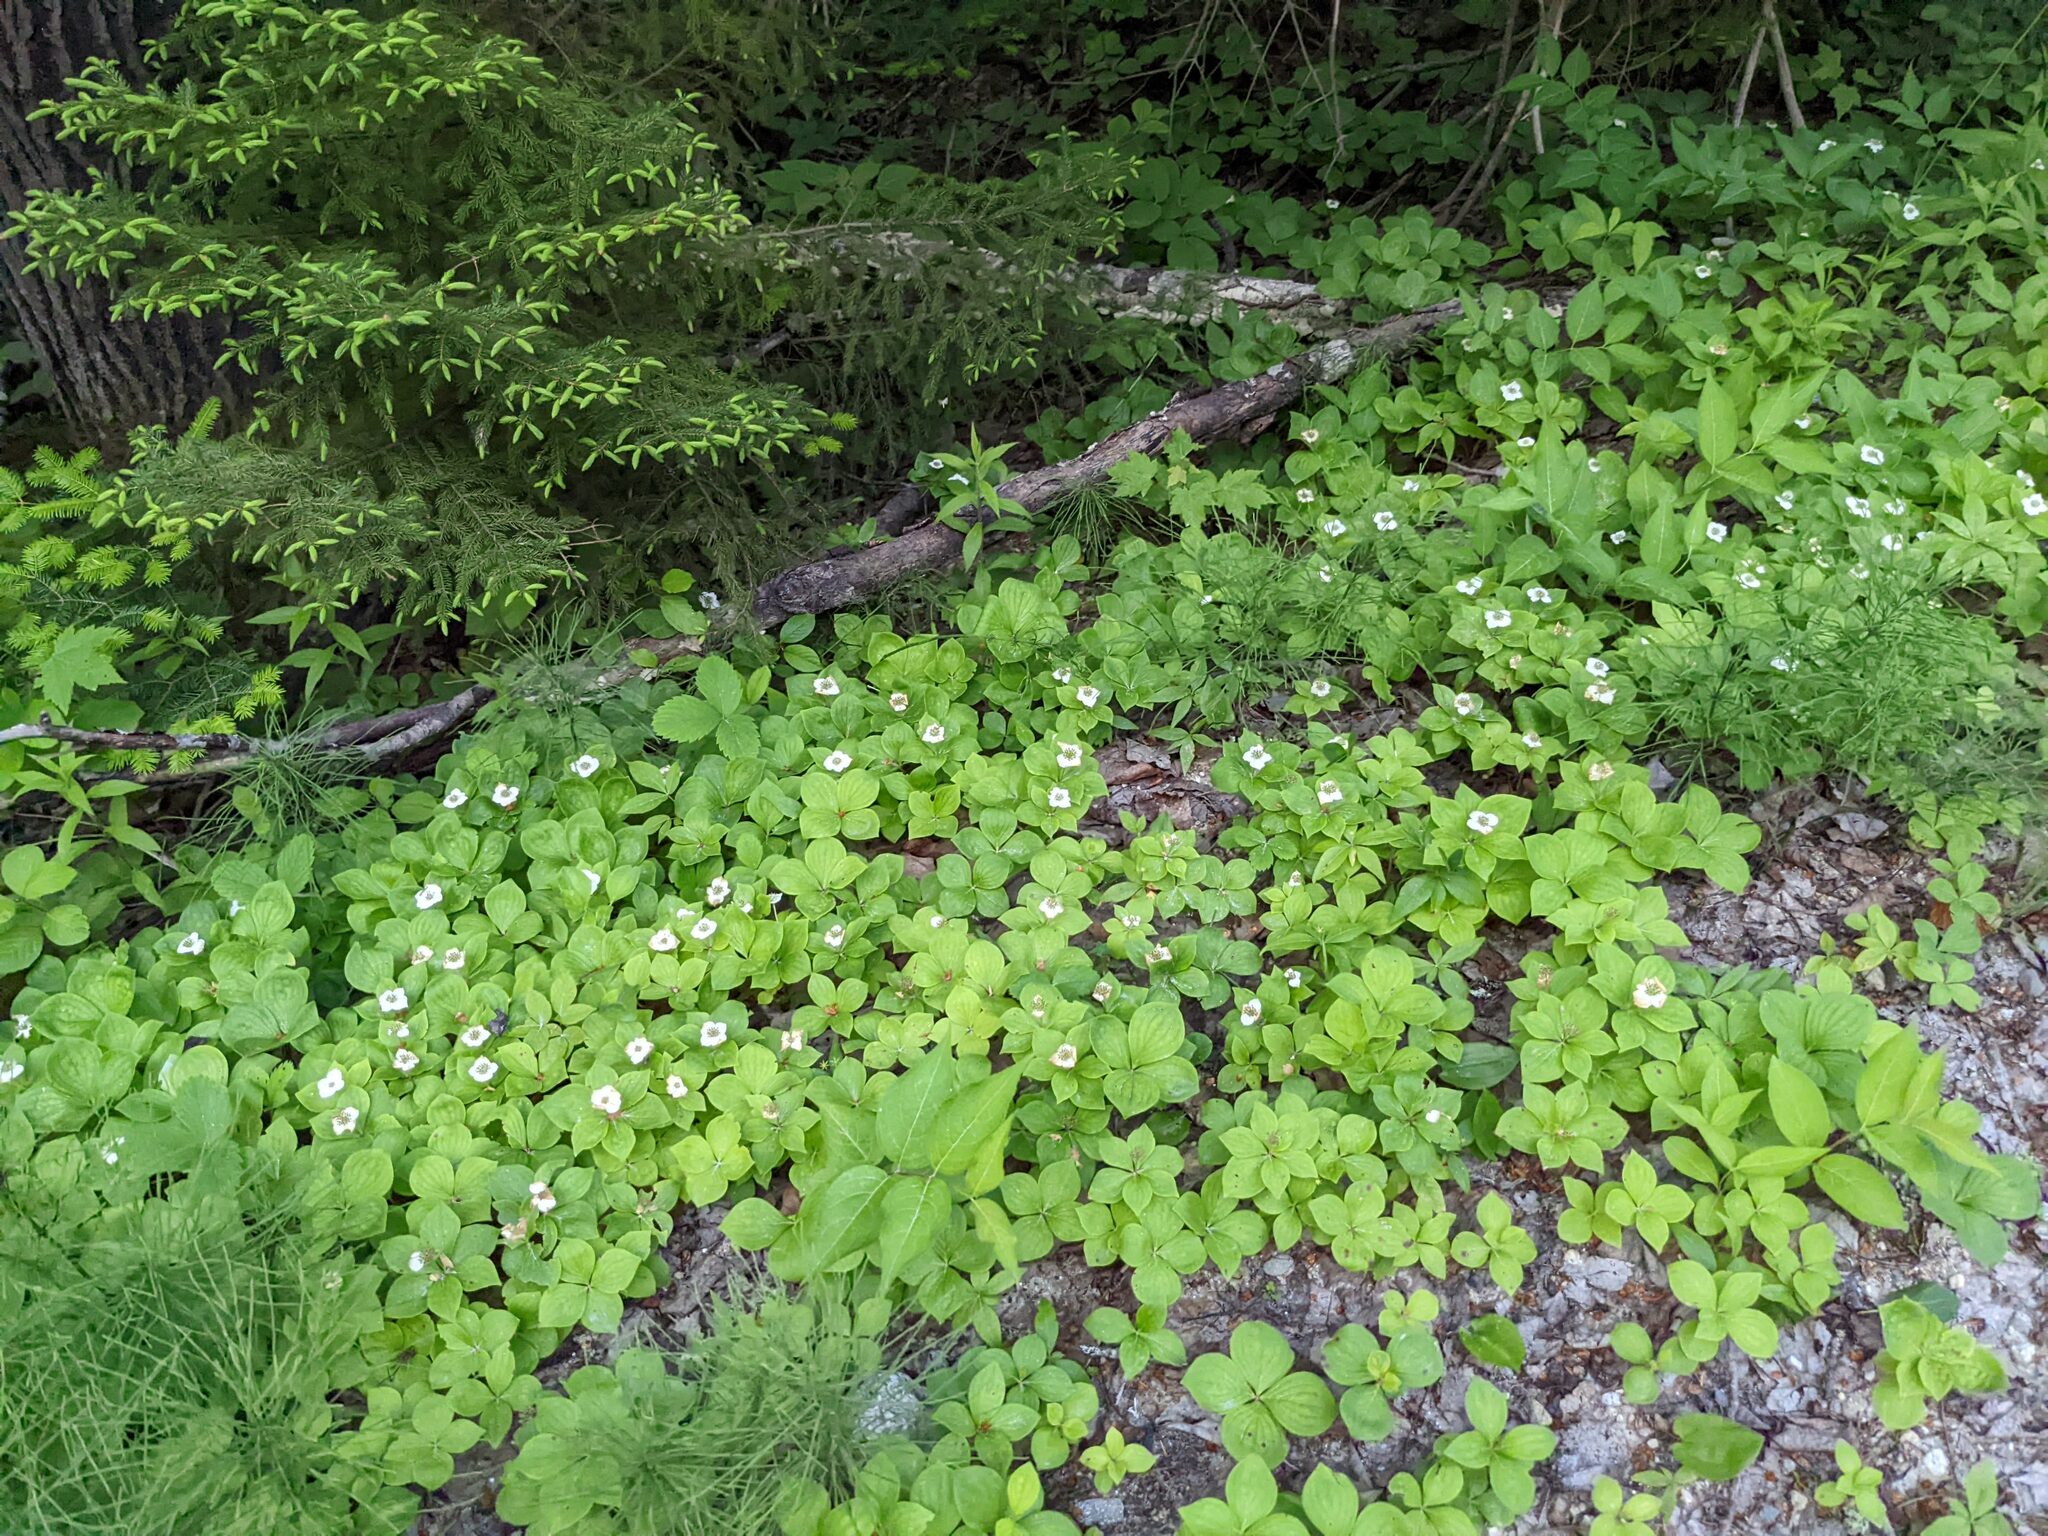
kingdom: Plantae
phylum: Tracheophyta
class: Magnoliopsida
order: Cornales
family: Cornaceae
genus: Cornus
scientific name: Cornus canadensis
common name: Creeping dogwood
